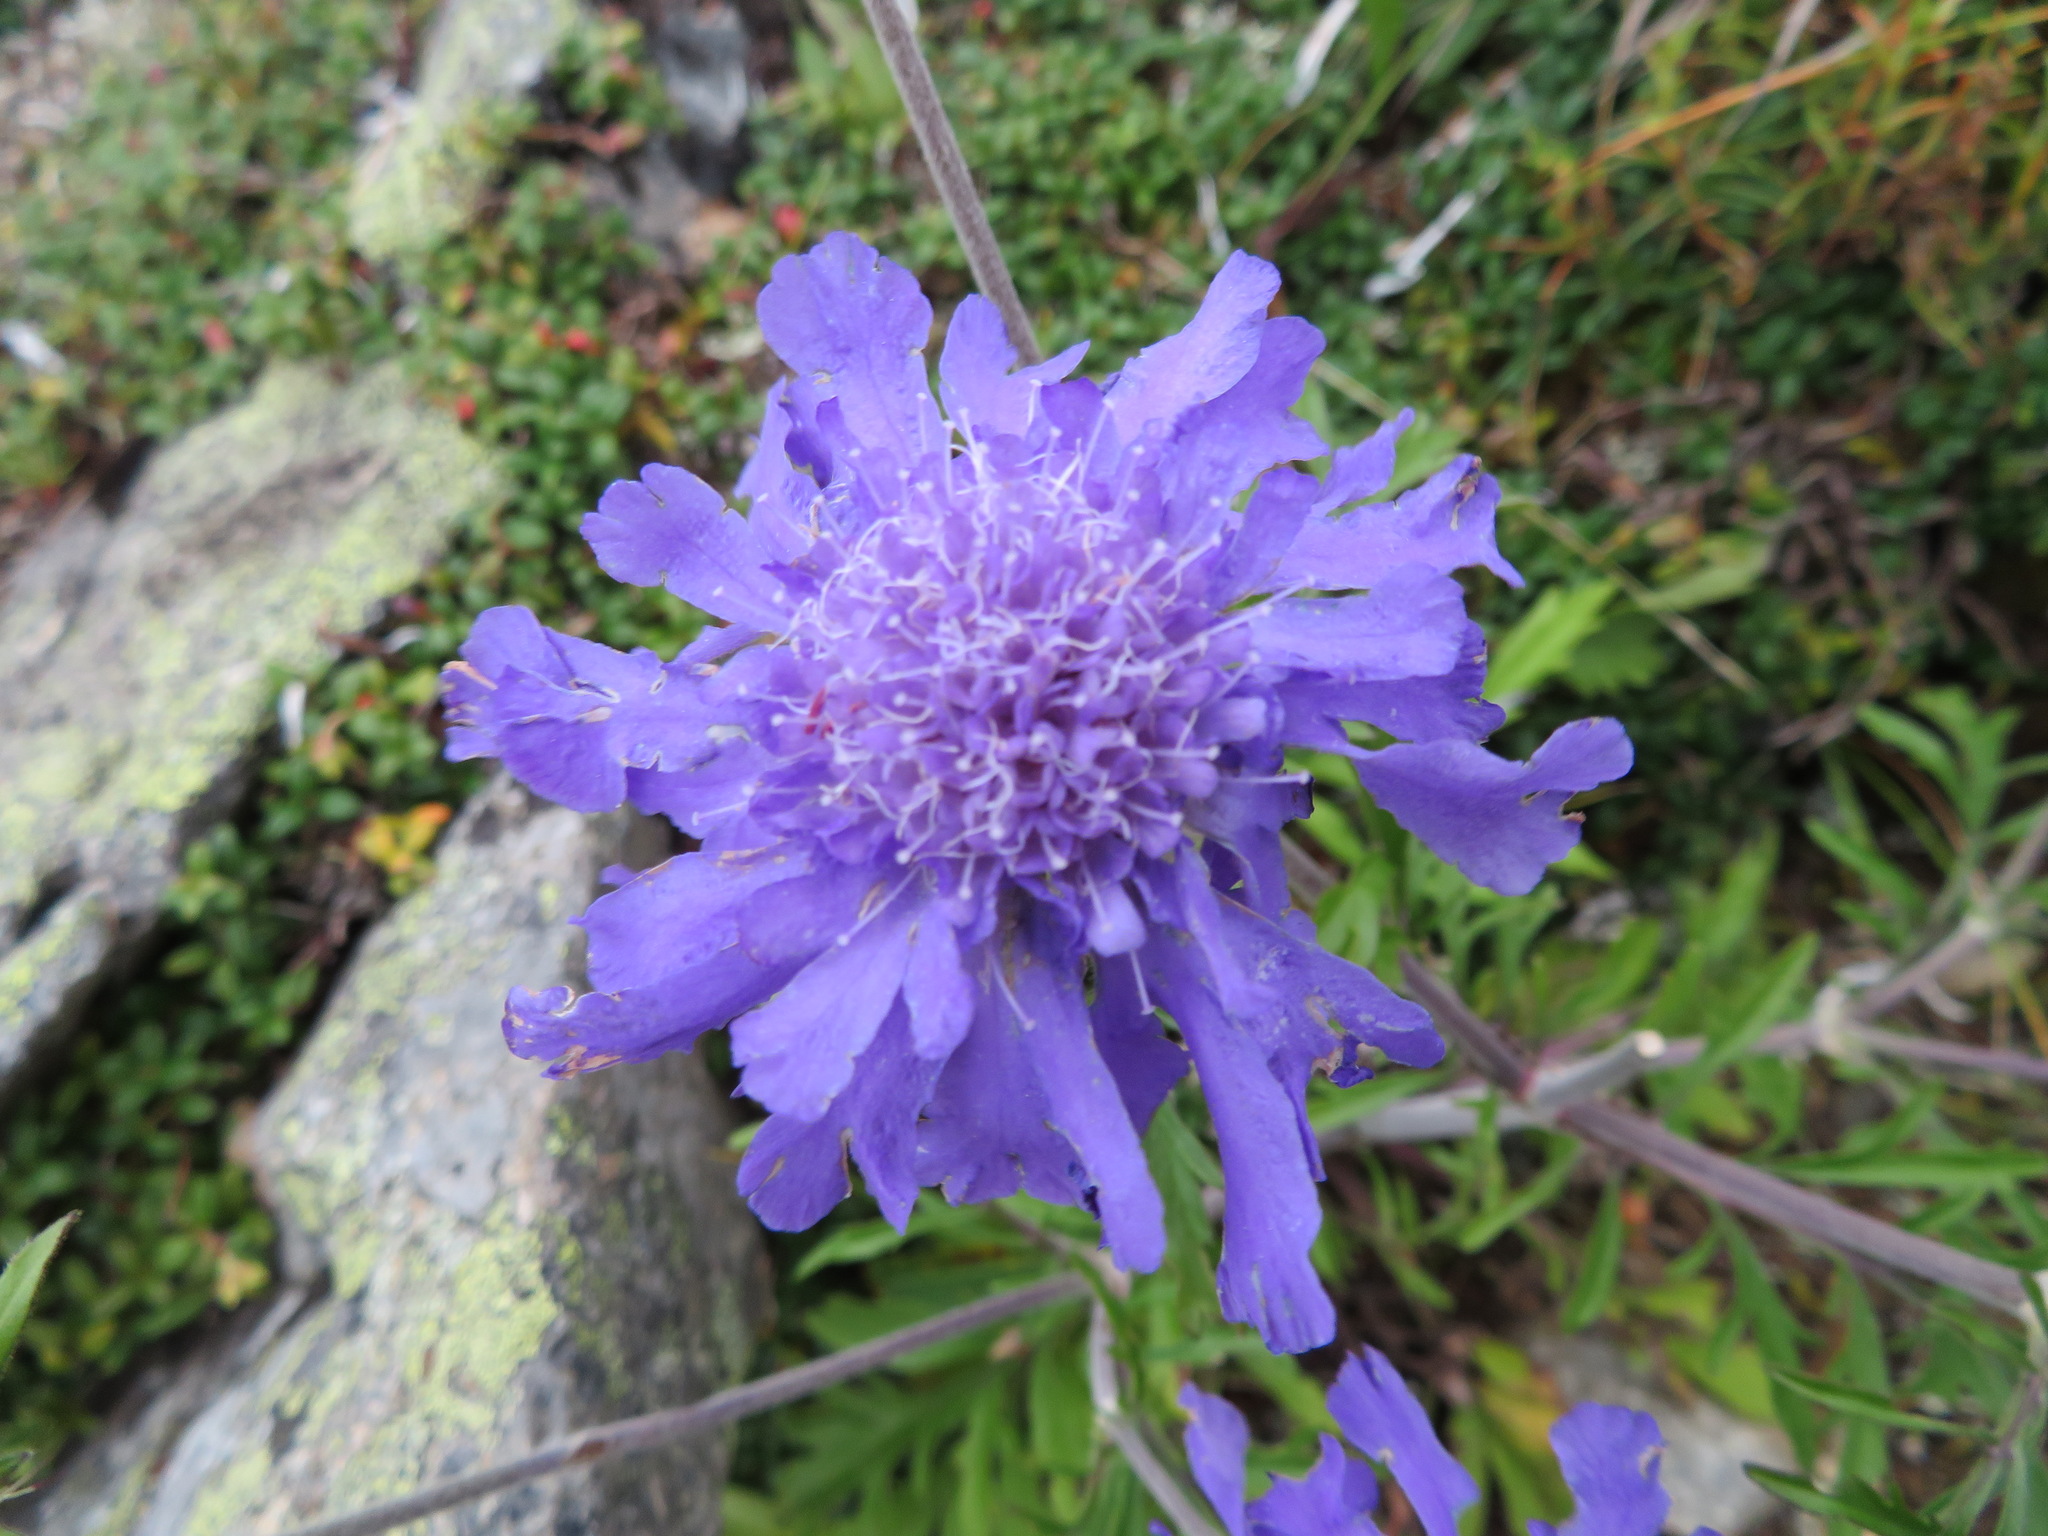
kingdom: Plantae
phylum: Tracheophyta
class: Magnoliopsida
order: Dipsacales
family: Caprifoliaceae
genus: Scabiosa
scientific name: Scabiosa japonica
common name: Pincushion-flower
